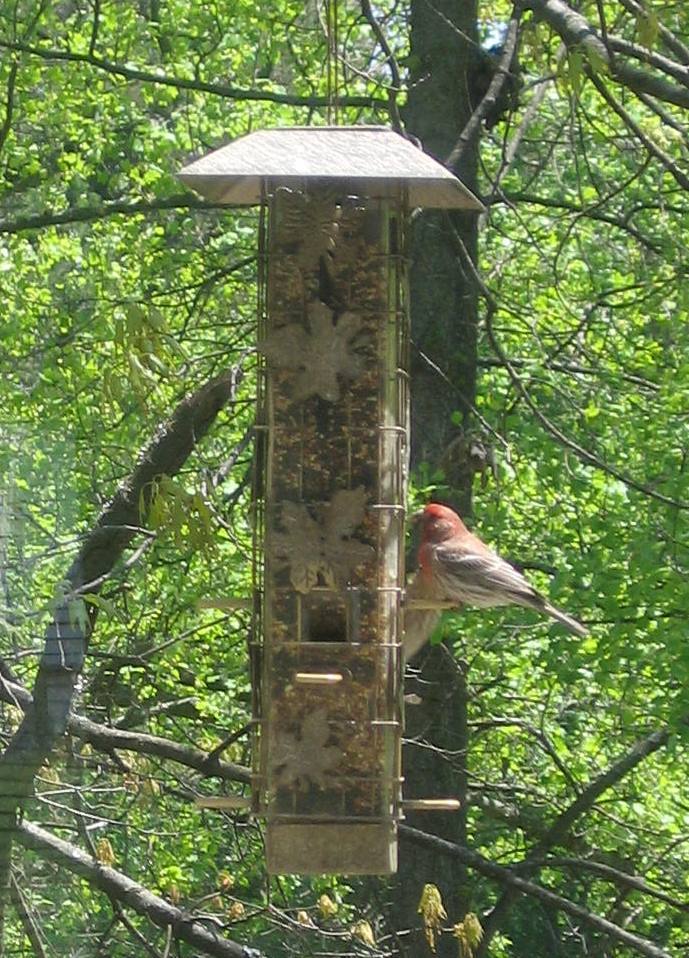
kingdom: Animalia
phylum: Chordata
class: Aves
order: Passeriformes
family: Fringillidae
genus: Haemorhous
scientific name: Haemorhous mexicanus
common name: House finch
